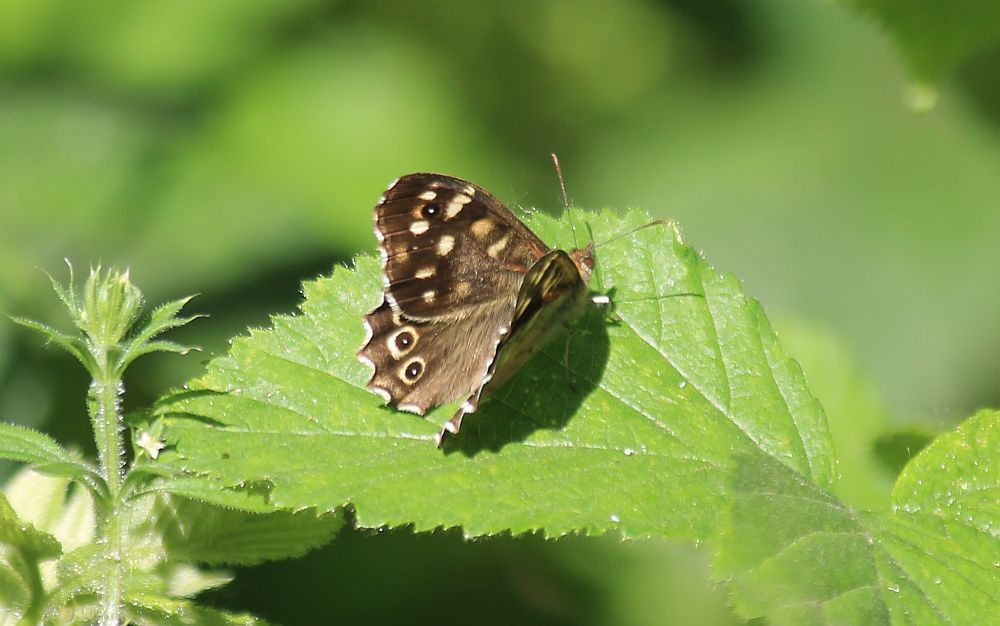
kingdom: Animalia
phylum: Arthropoda
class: Insecta
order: Lepidoptera
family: Nymphalidae
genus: Pararge
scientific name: Pararge aegeria
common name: Speckled wood
